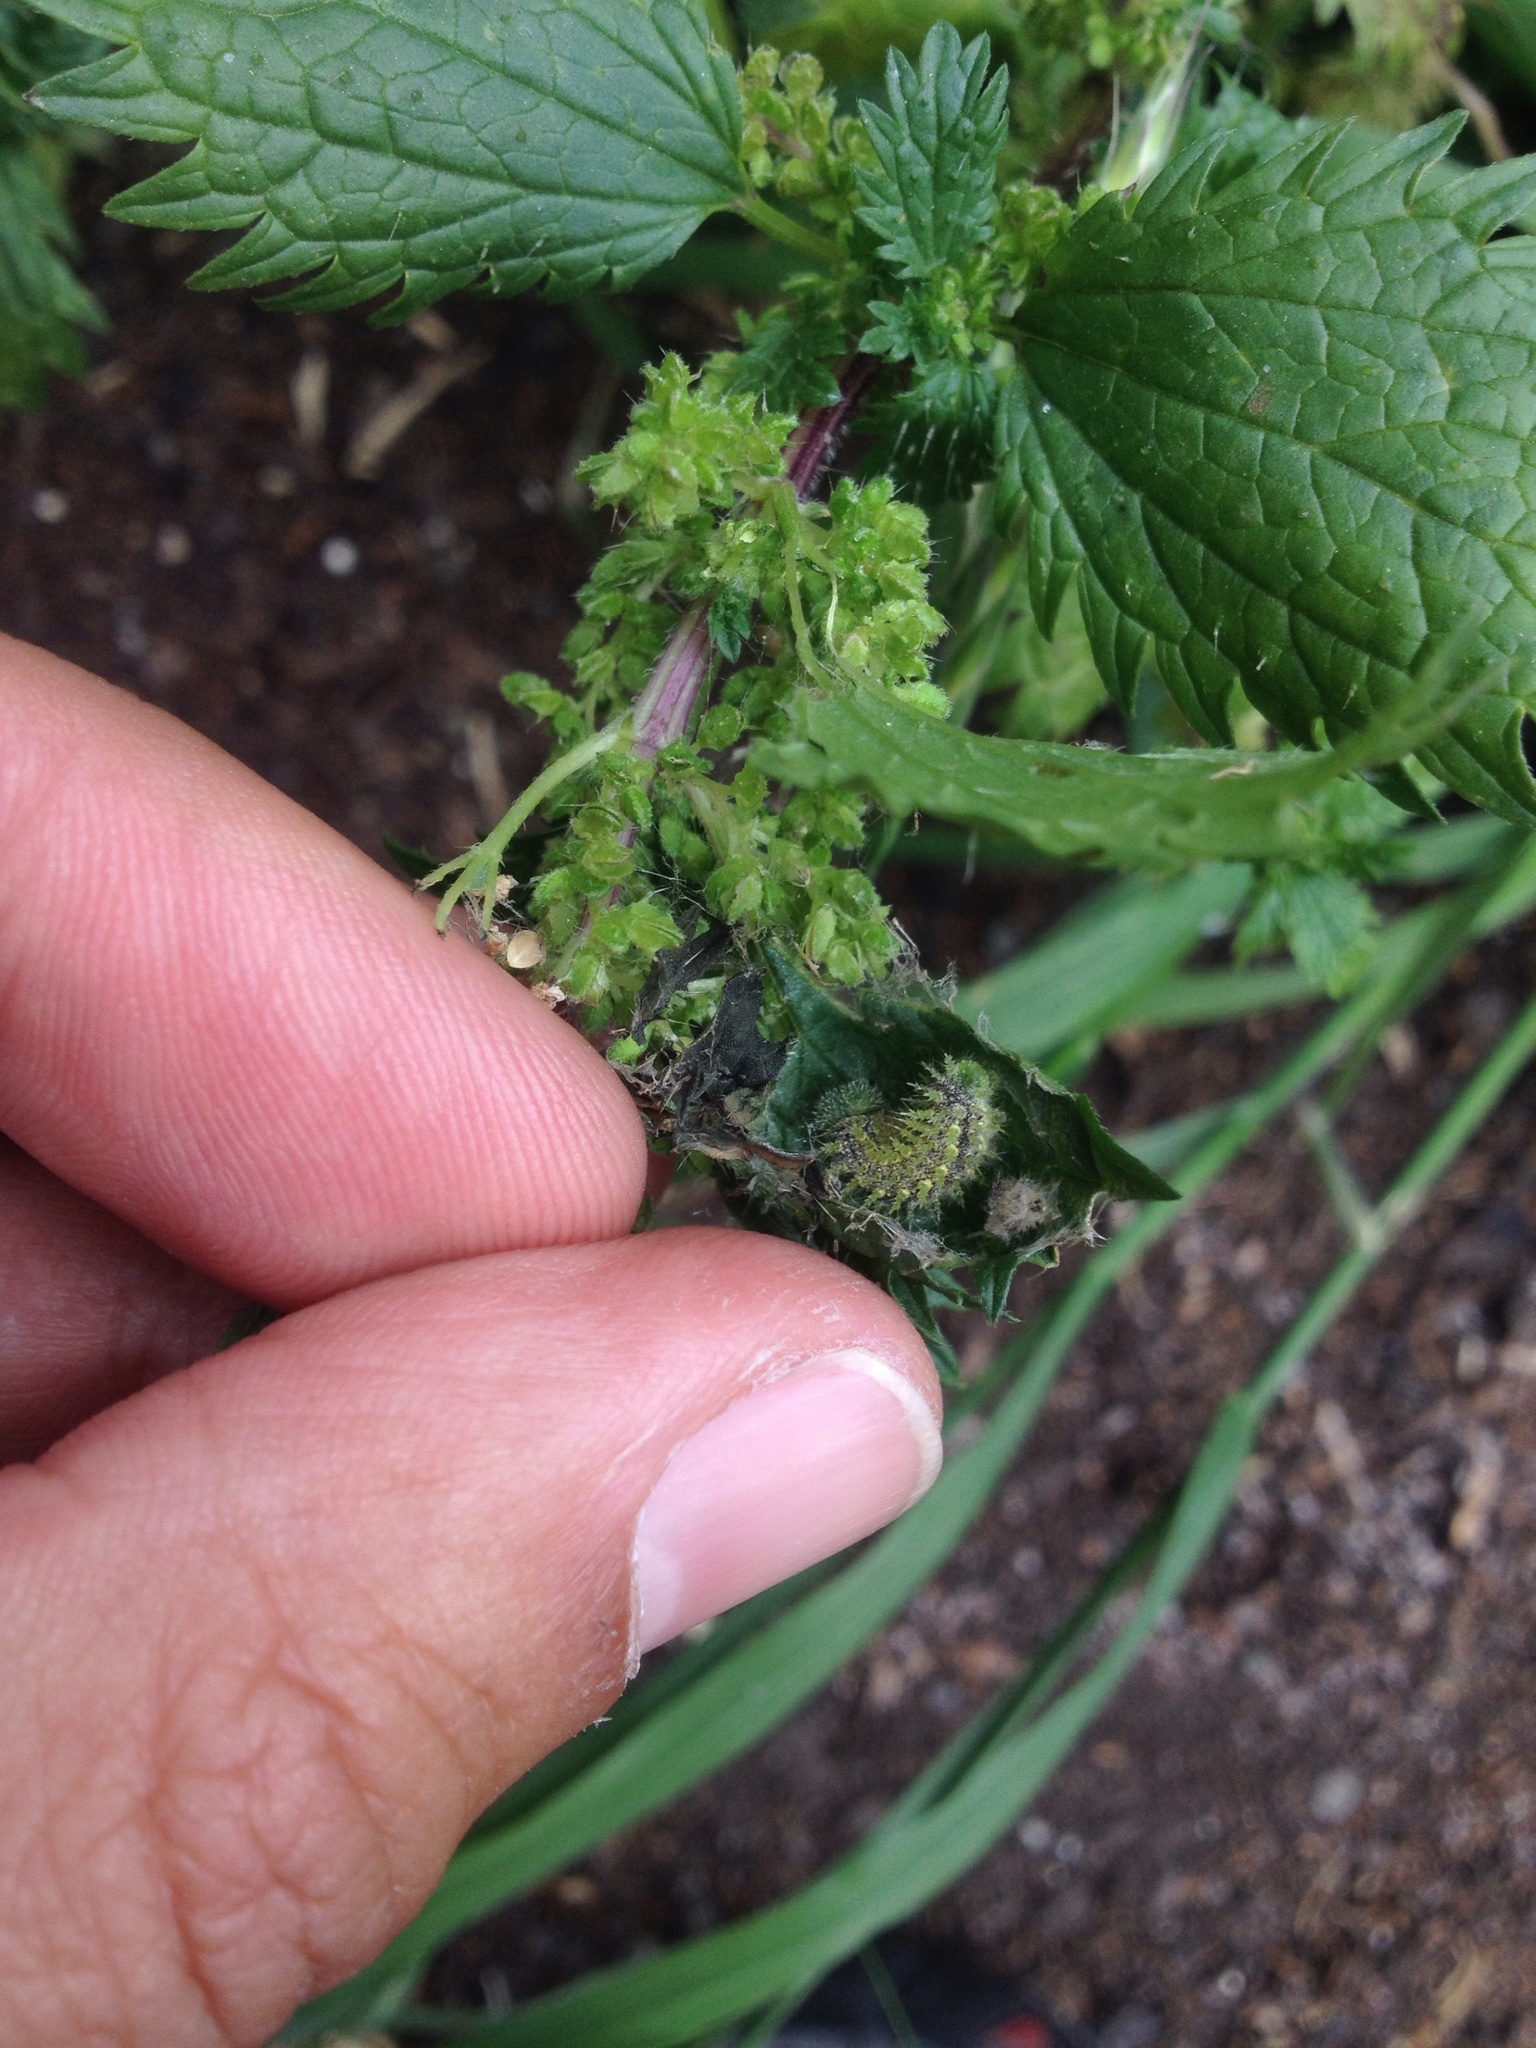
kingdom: Animalia
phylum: Arthropoda
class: Insecta
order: Lepidoptera
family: Nymphalidae
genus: Vanessa
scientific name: Vanessa itea
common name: Yellow admiral
